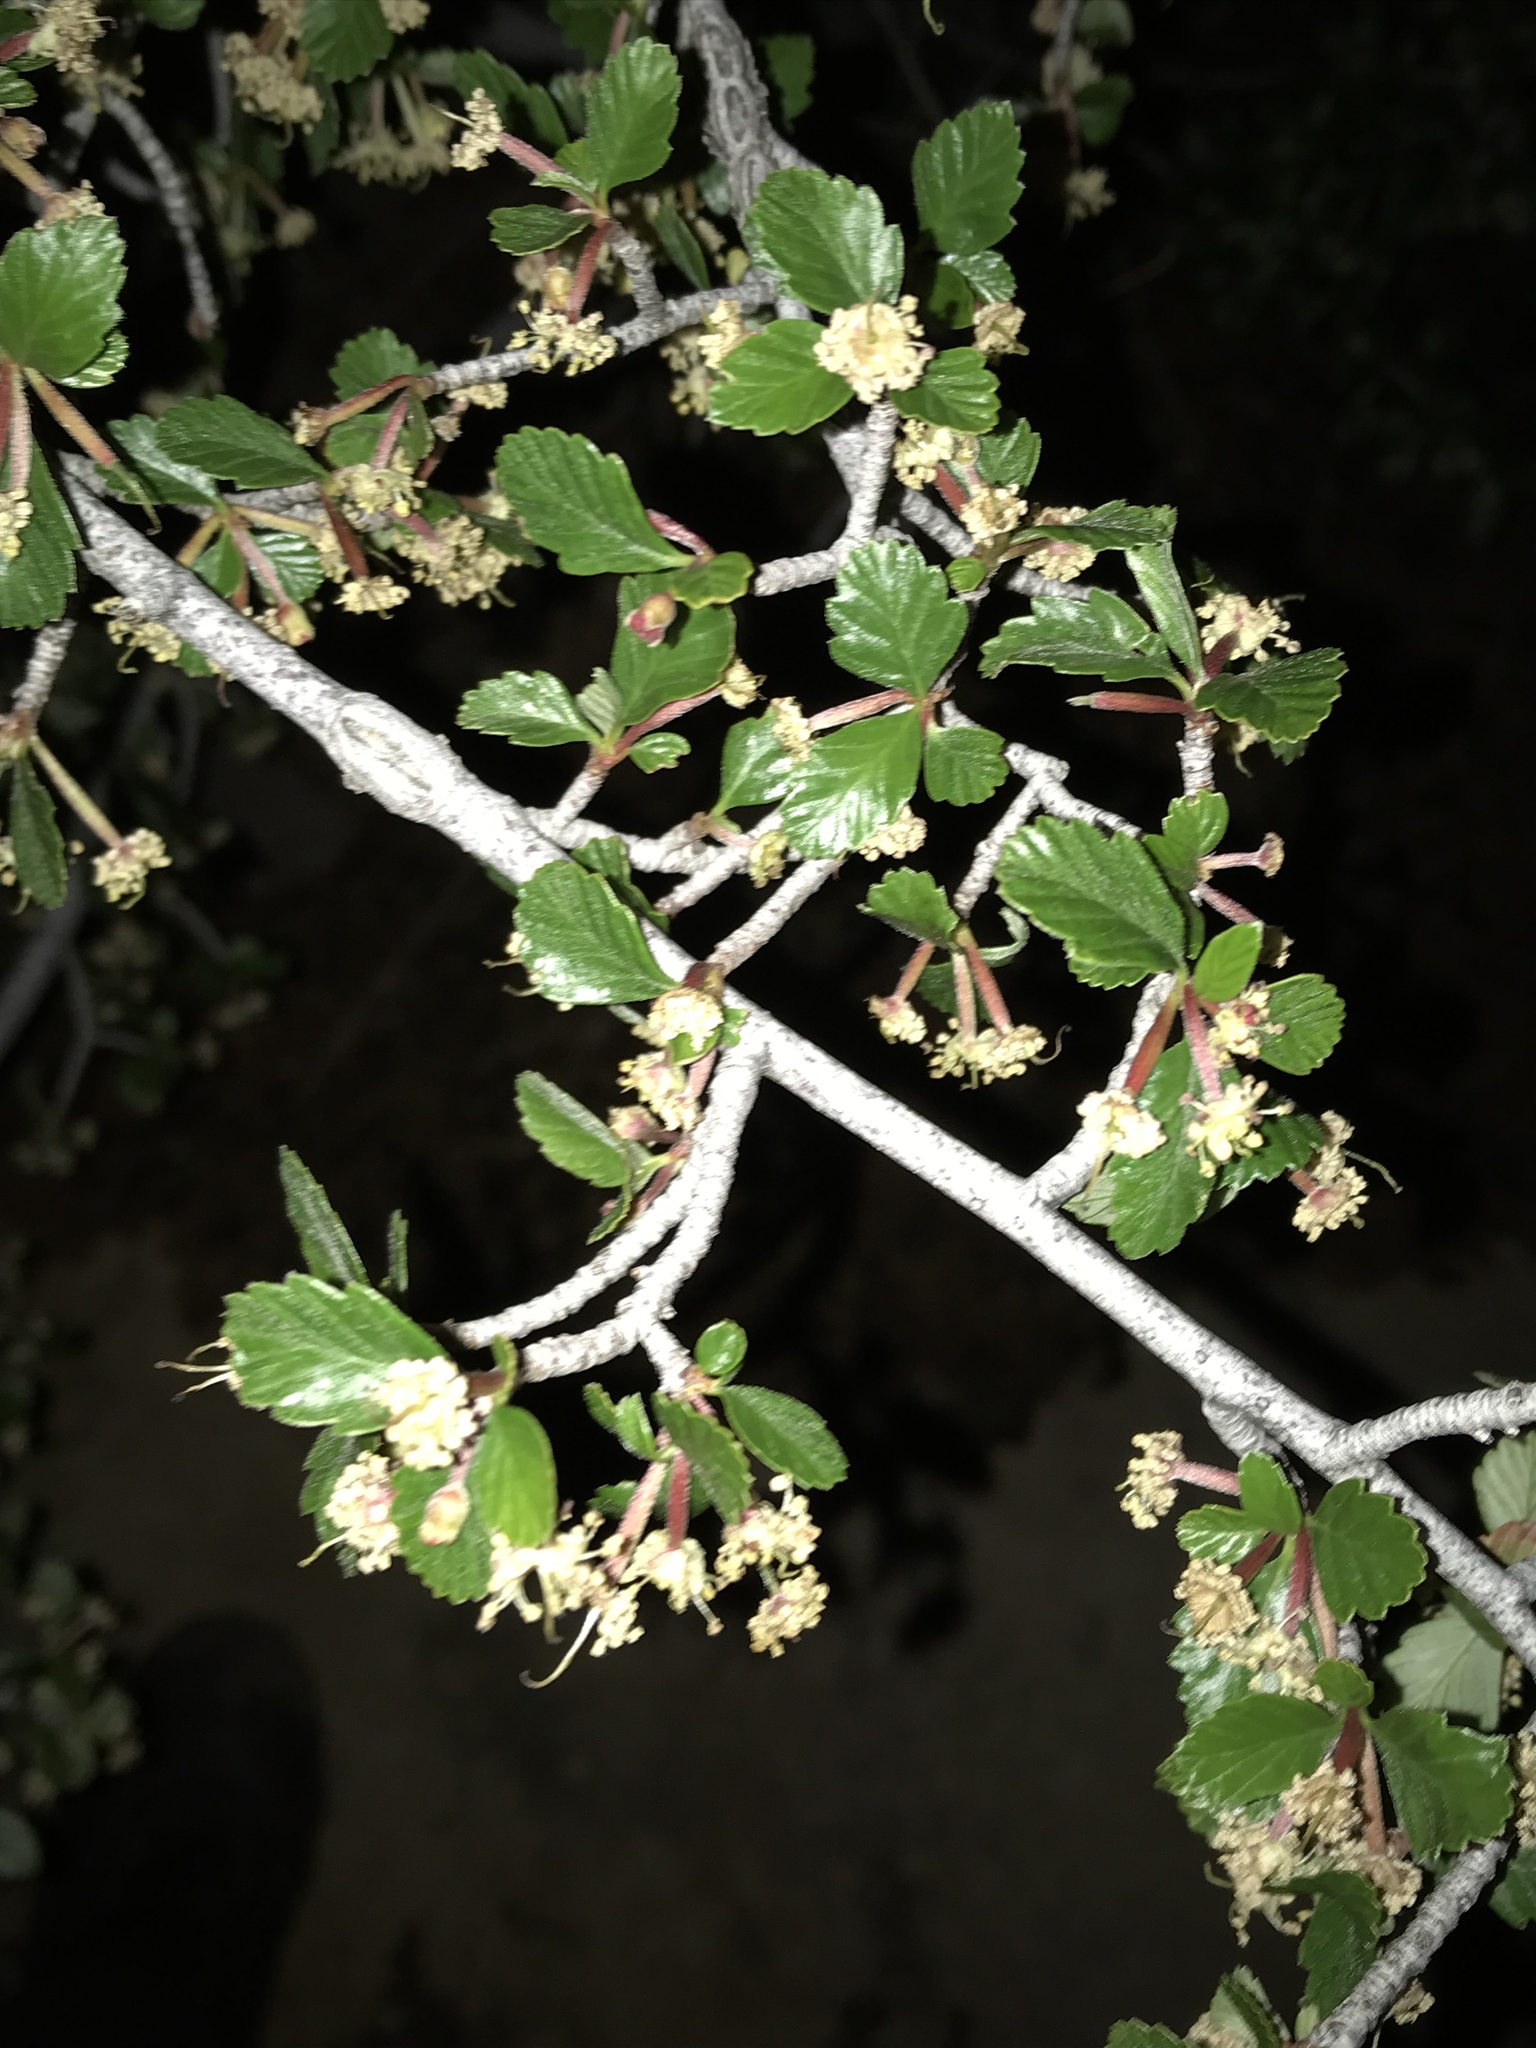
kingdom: Plantae
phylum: Tracheophyta
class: Magnoliopsida
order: Rosales
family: Rosaceae
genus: Cercocarpus
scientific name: Cercocarpus montanus
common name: Alder-leaf cercocarpus
